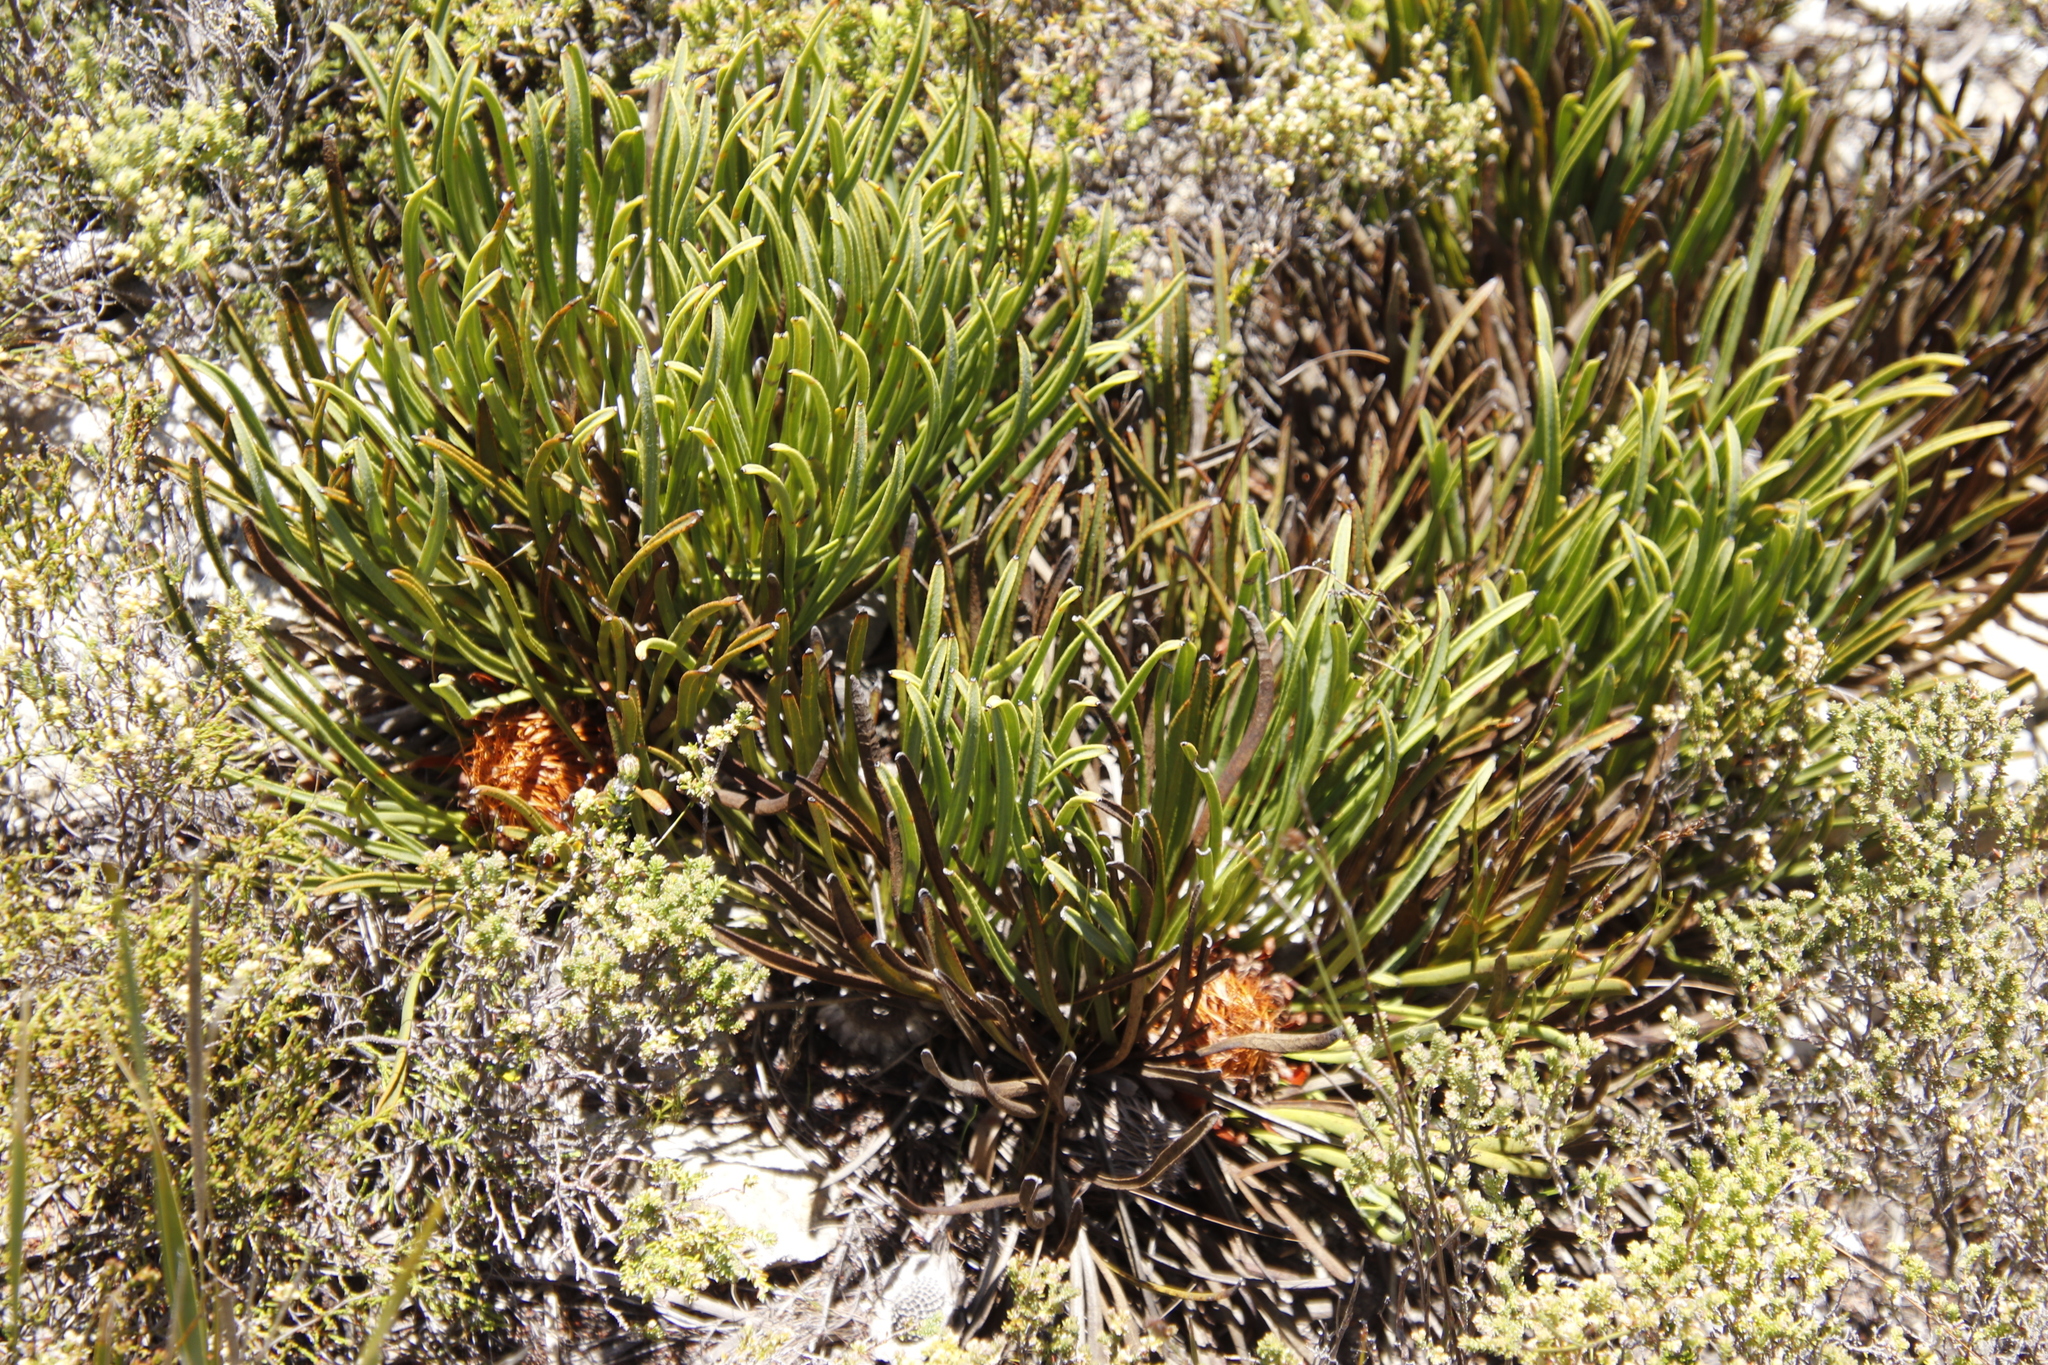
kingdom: Plantae
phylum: Tracheophyta
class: Magnoliopsida
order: Proteales
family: Proteaceae
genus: Protea
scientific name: Protea scabra
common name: Sandpaper-leaf sugarbush
